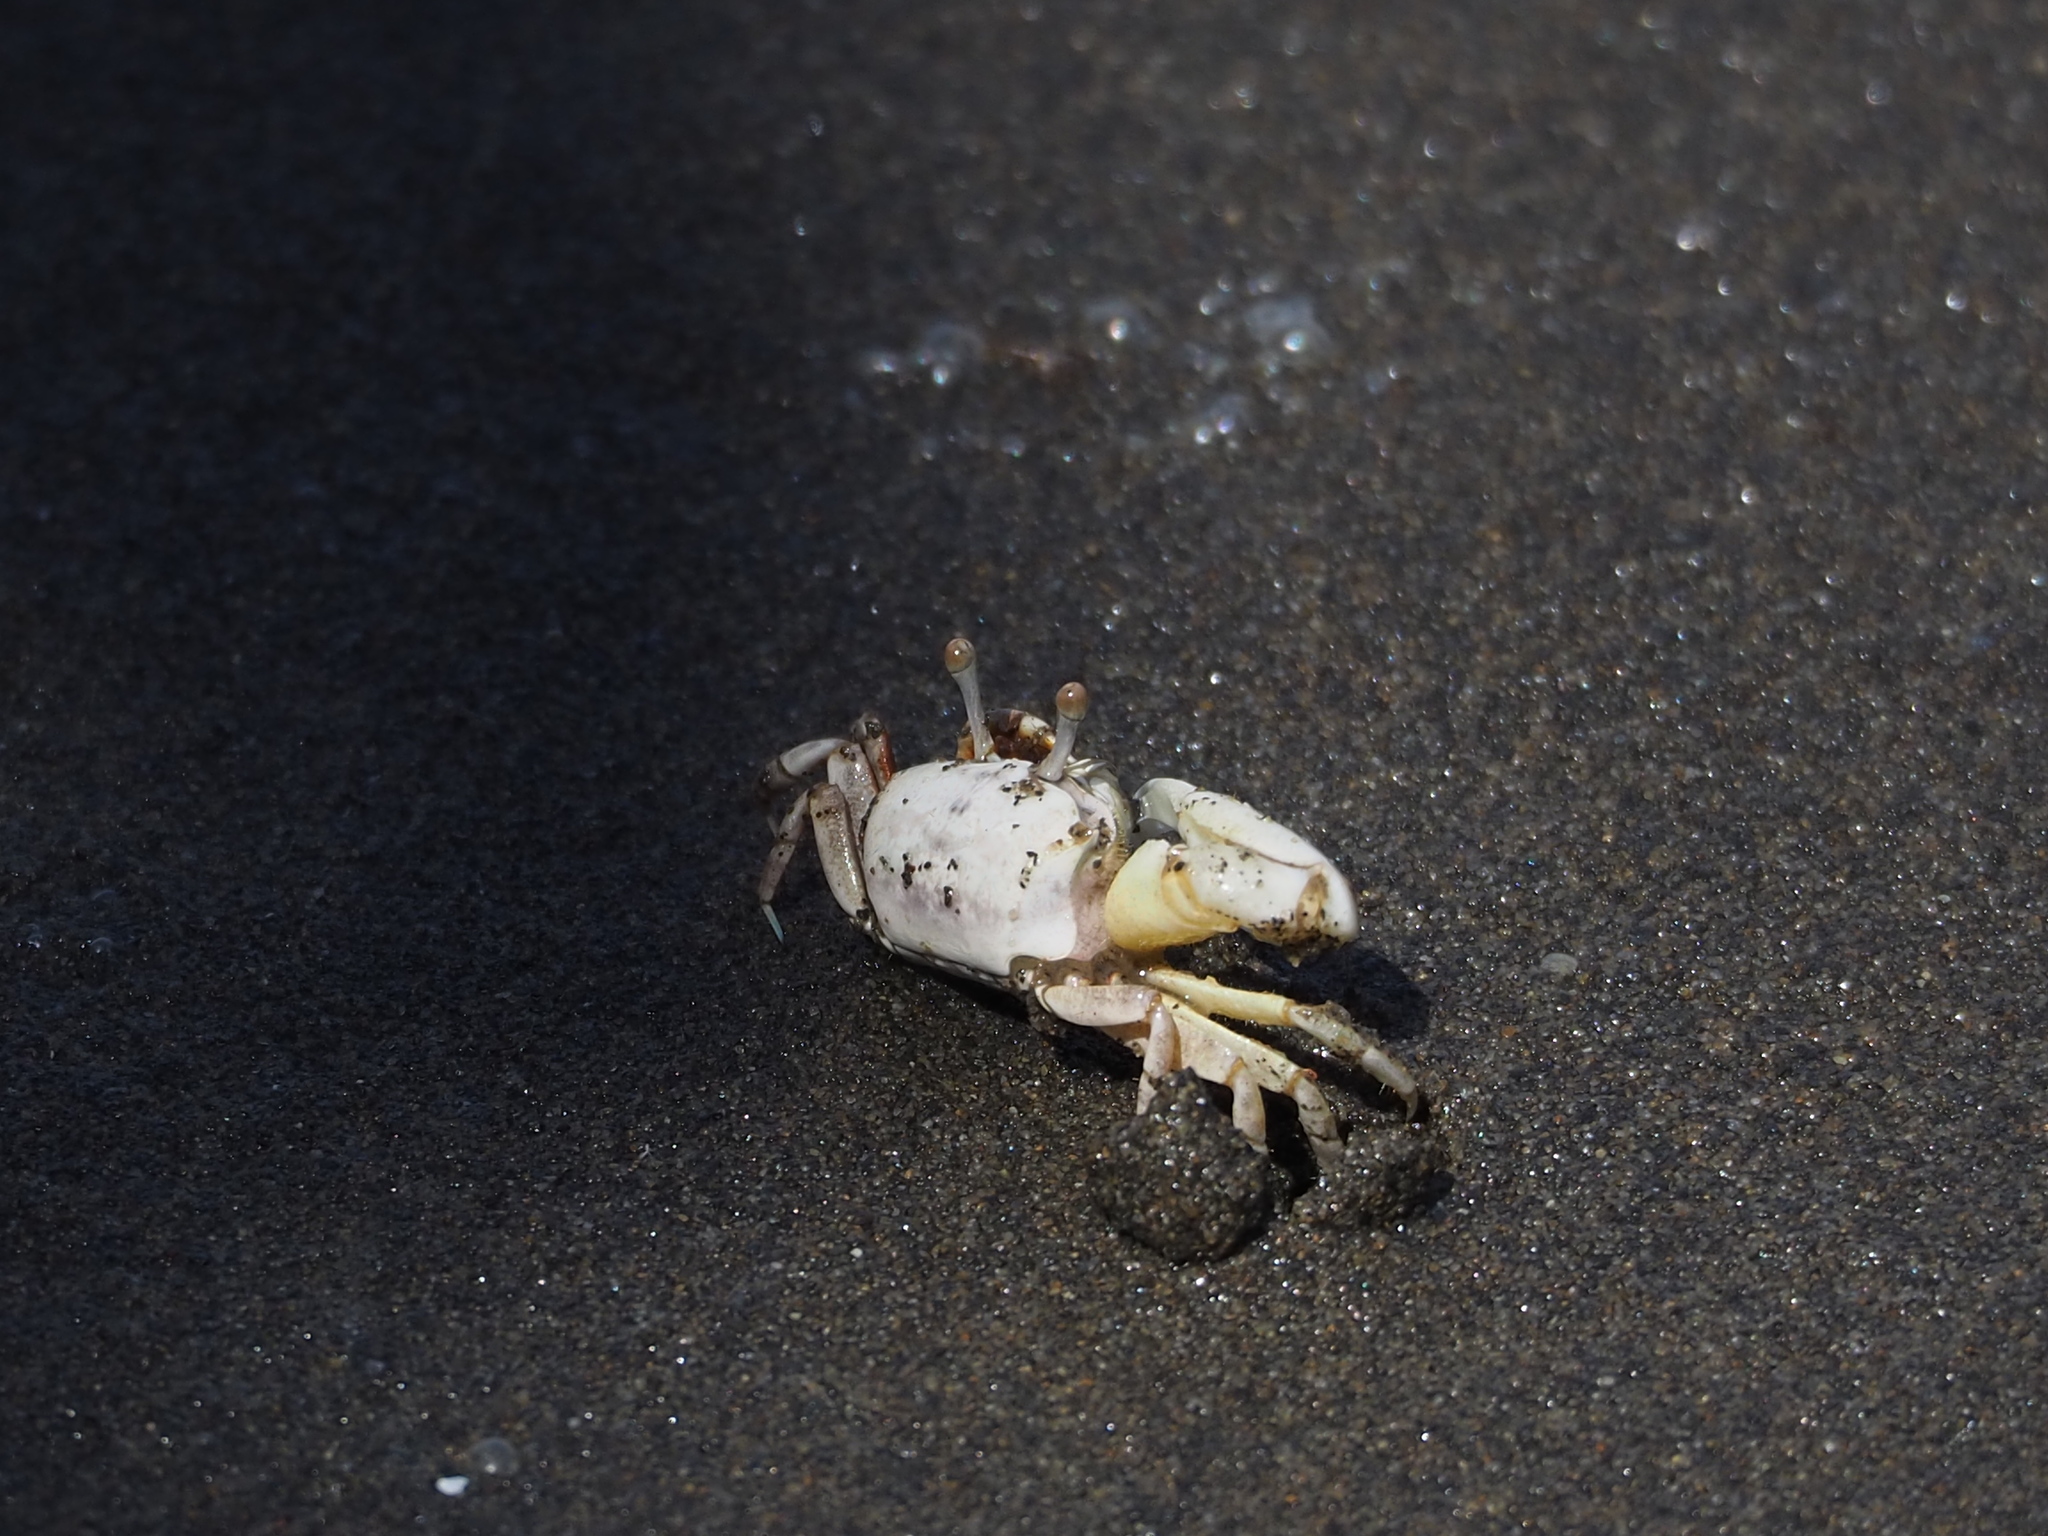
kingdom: Animalia
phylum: Arthropoda
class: Malacostraca
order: Decapoda
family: Ocypodidae
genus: Austruca
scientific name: Austruca lactea
